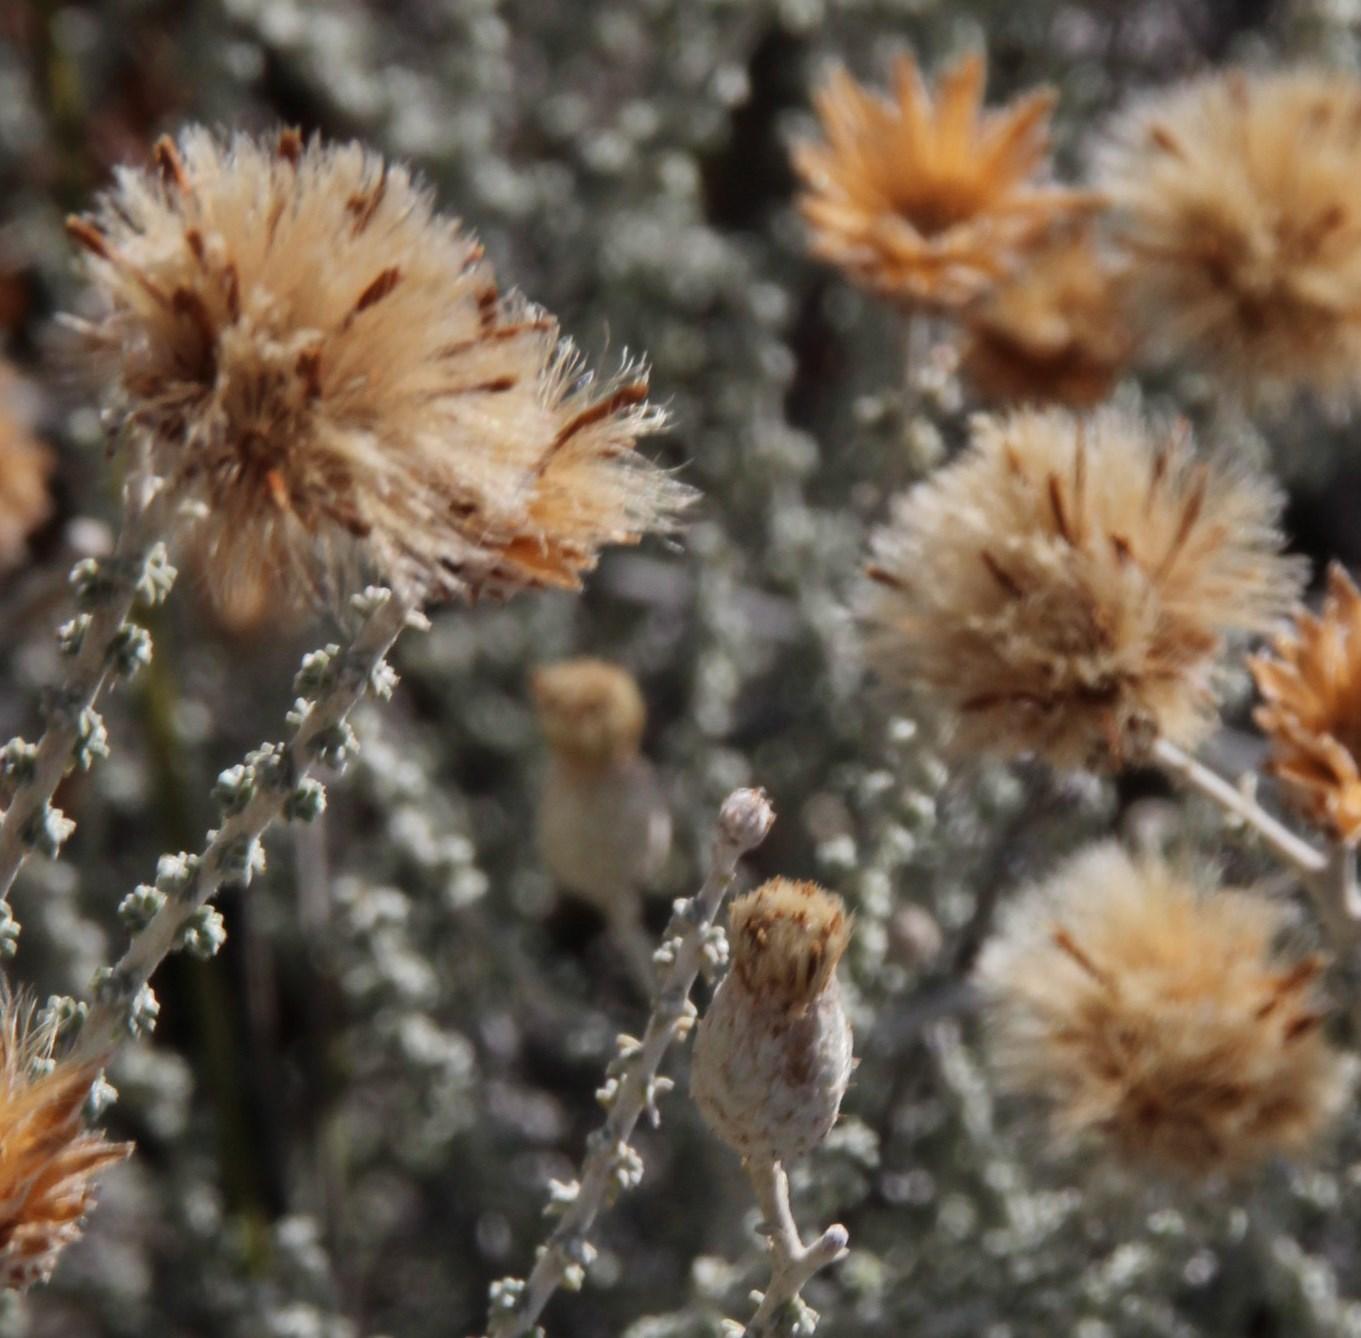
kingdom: Plantae
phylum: Tracheophyta
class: Magnoliopsida
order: Asterales
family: Asteraceae
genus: Lachnospermum
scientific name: Lachnospermum fasciculatum
